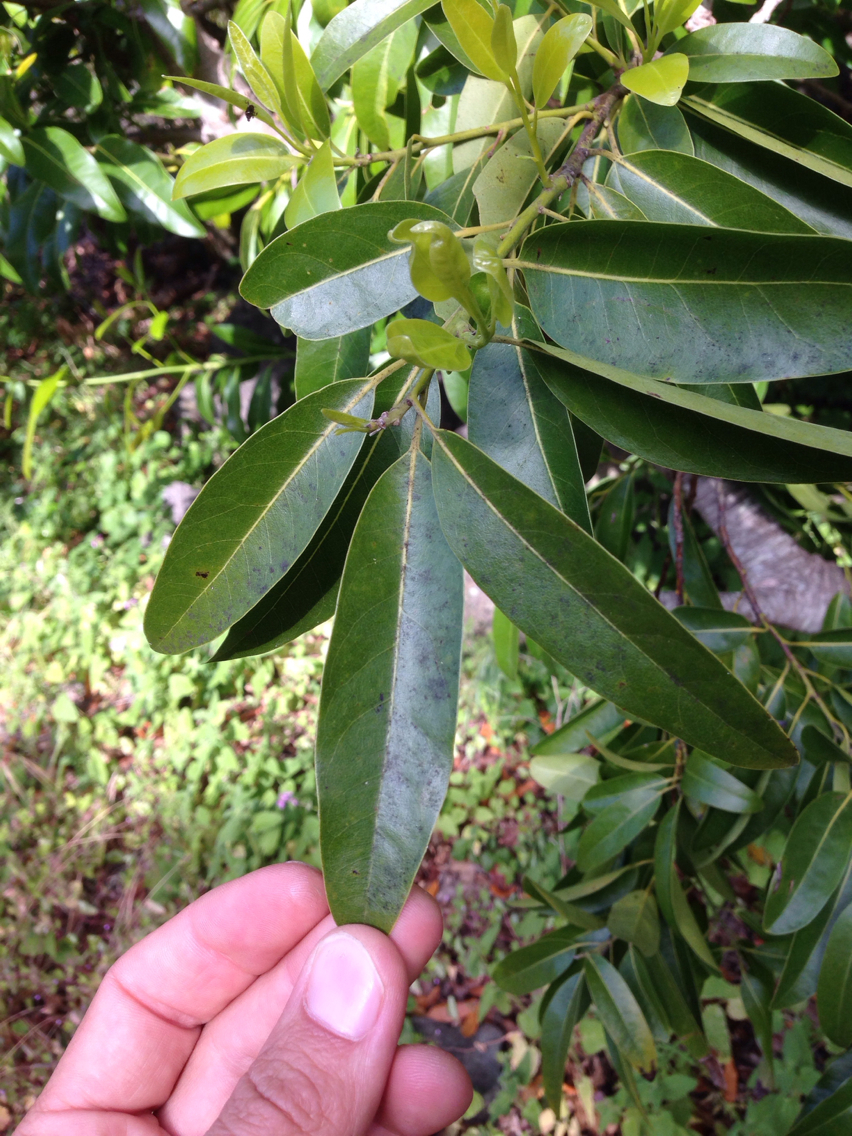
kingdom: Plantae
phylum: Tracheophyta
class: Magnoliopsida
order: Laurales
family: Lauraceae
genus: Umbellularia
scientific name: Umbellularia californica
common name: California bay
